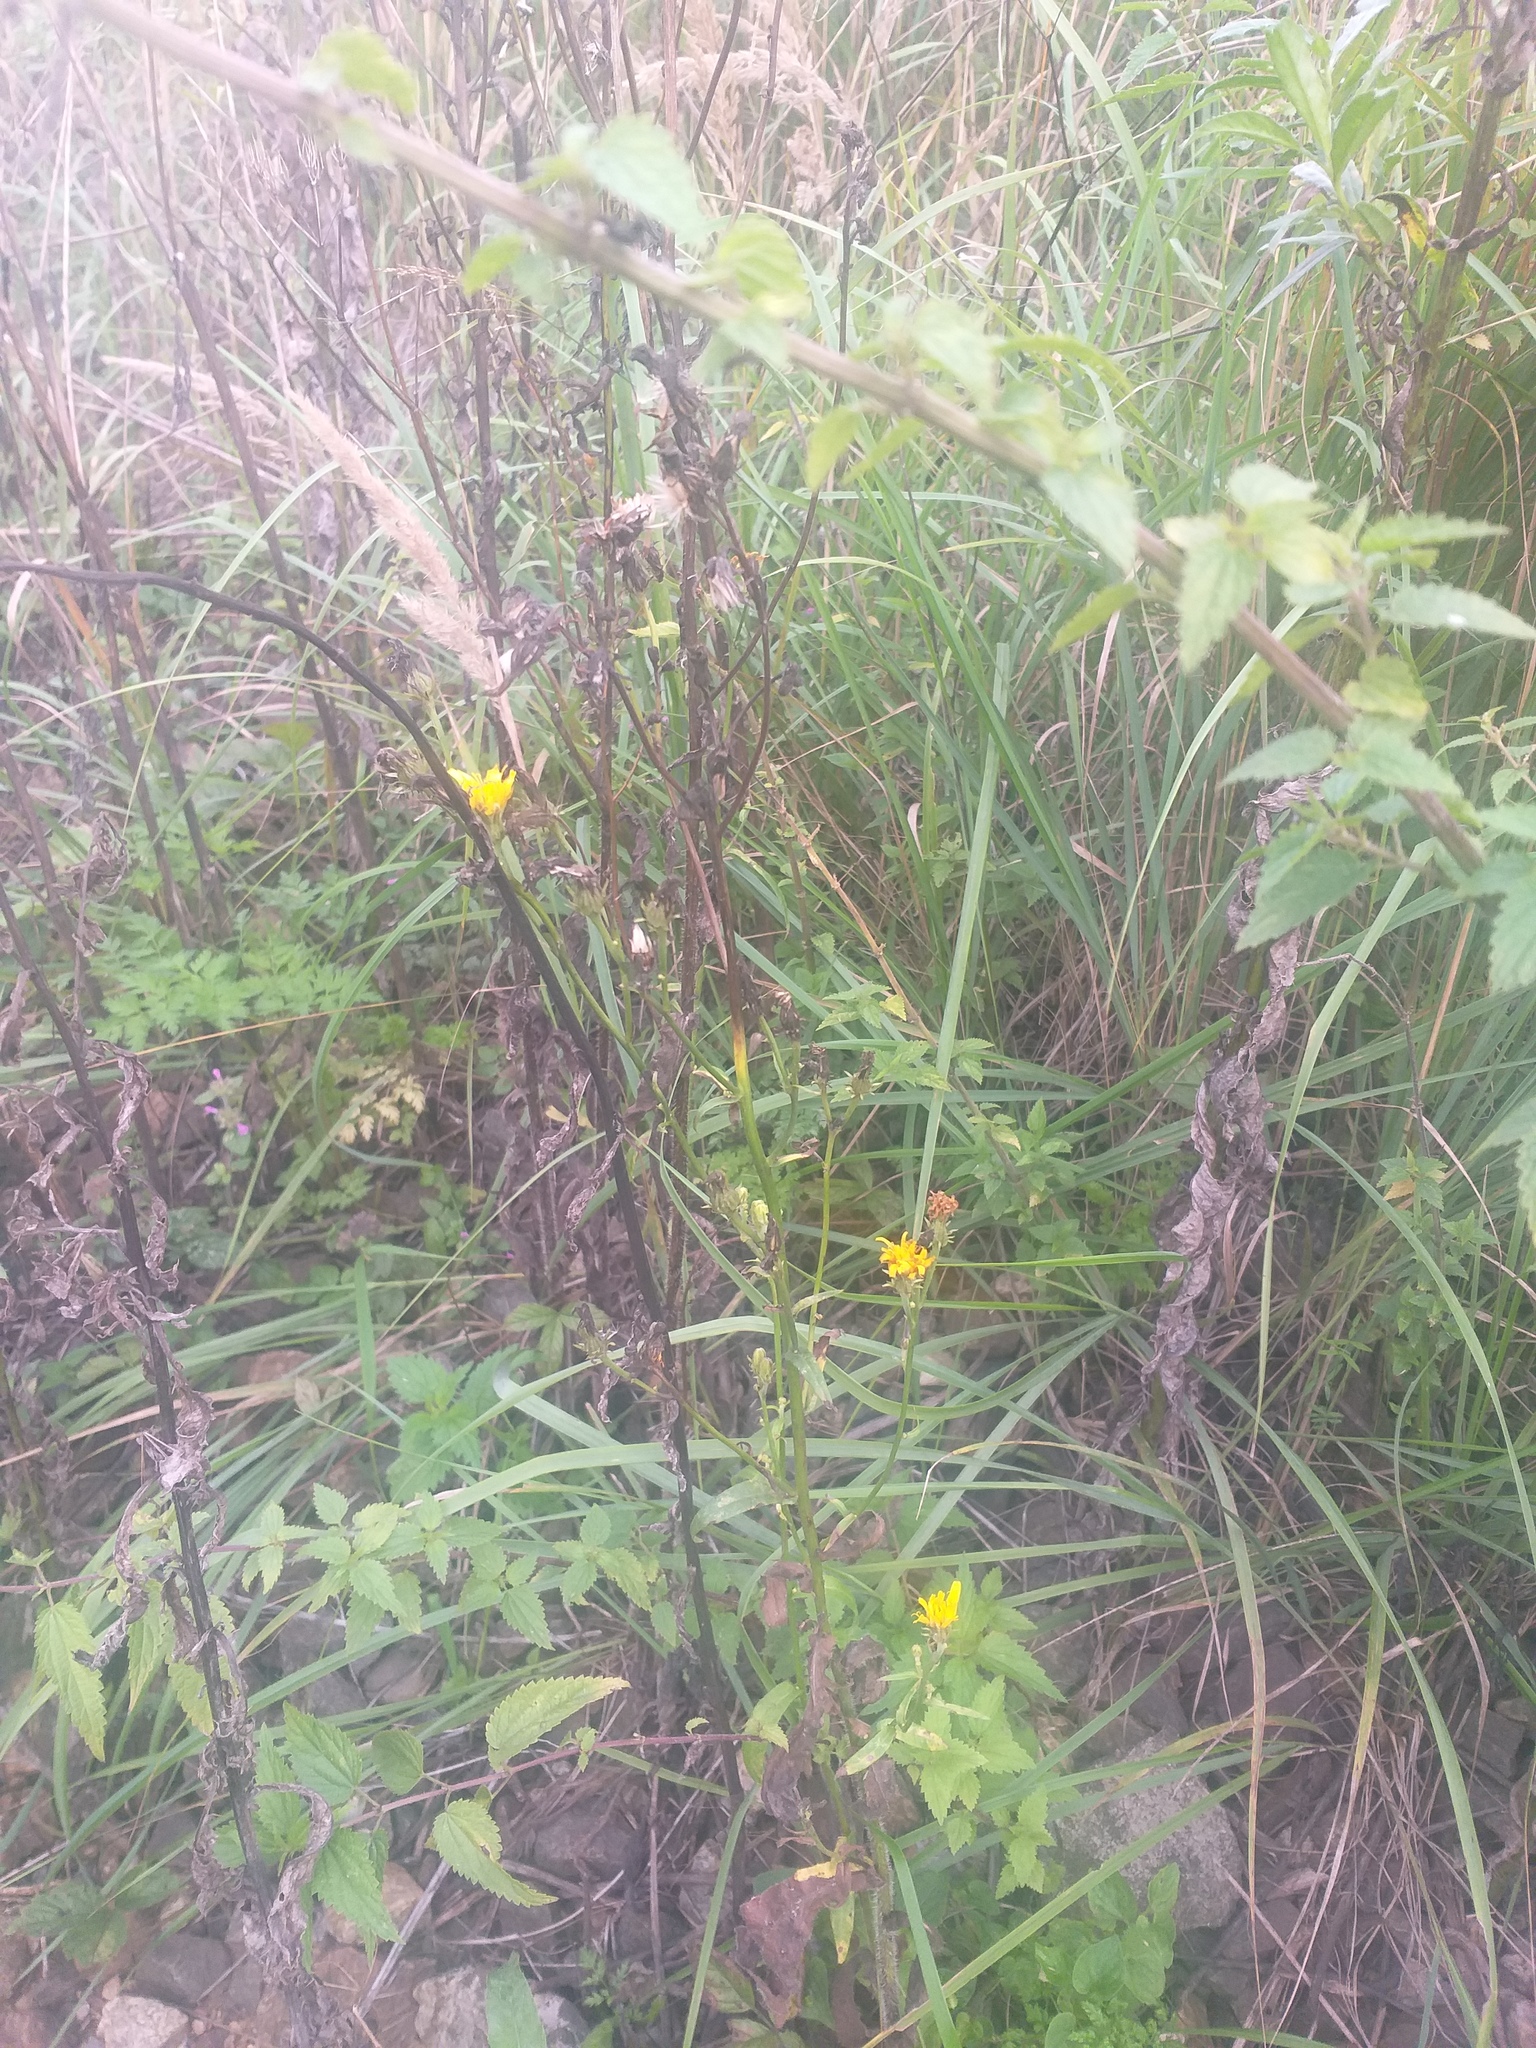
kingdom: Plantae
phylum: Tracheophyta
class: Magnoliopsida
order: Asterales
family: Asteraceae
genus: Picris
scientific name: Picris hieracioides
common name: Hawkweed oxtongue
